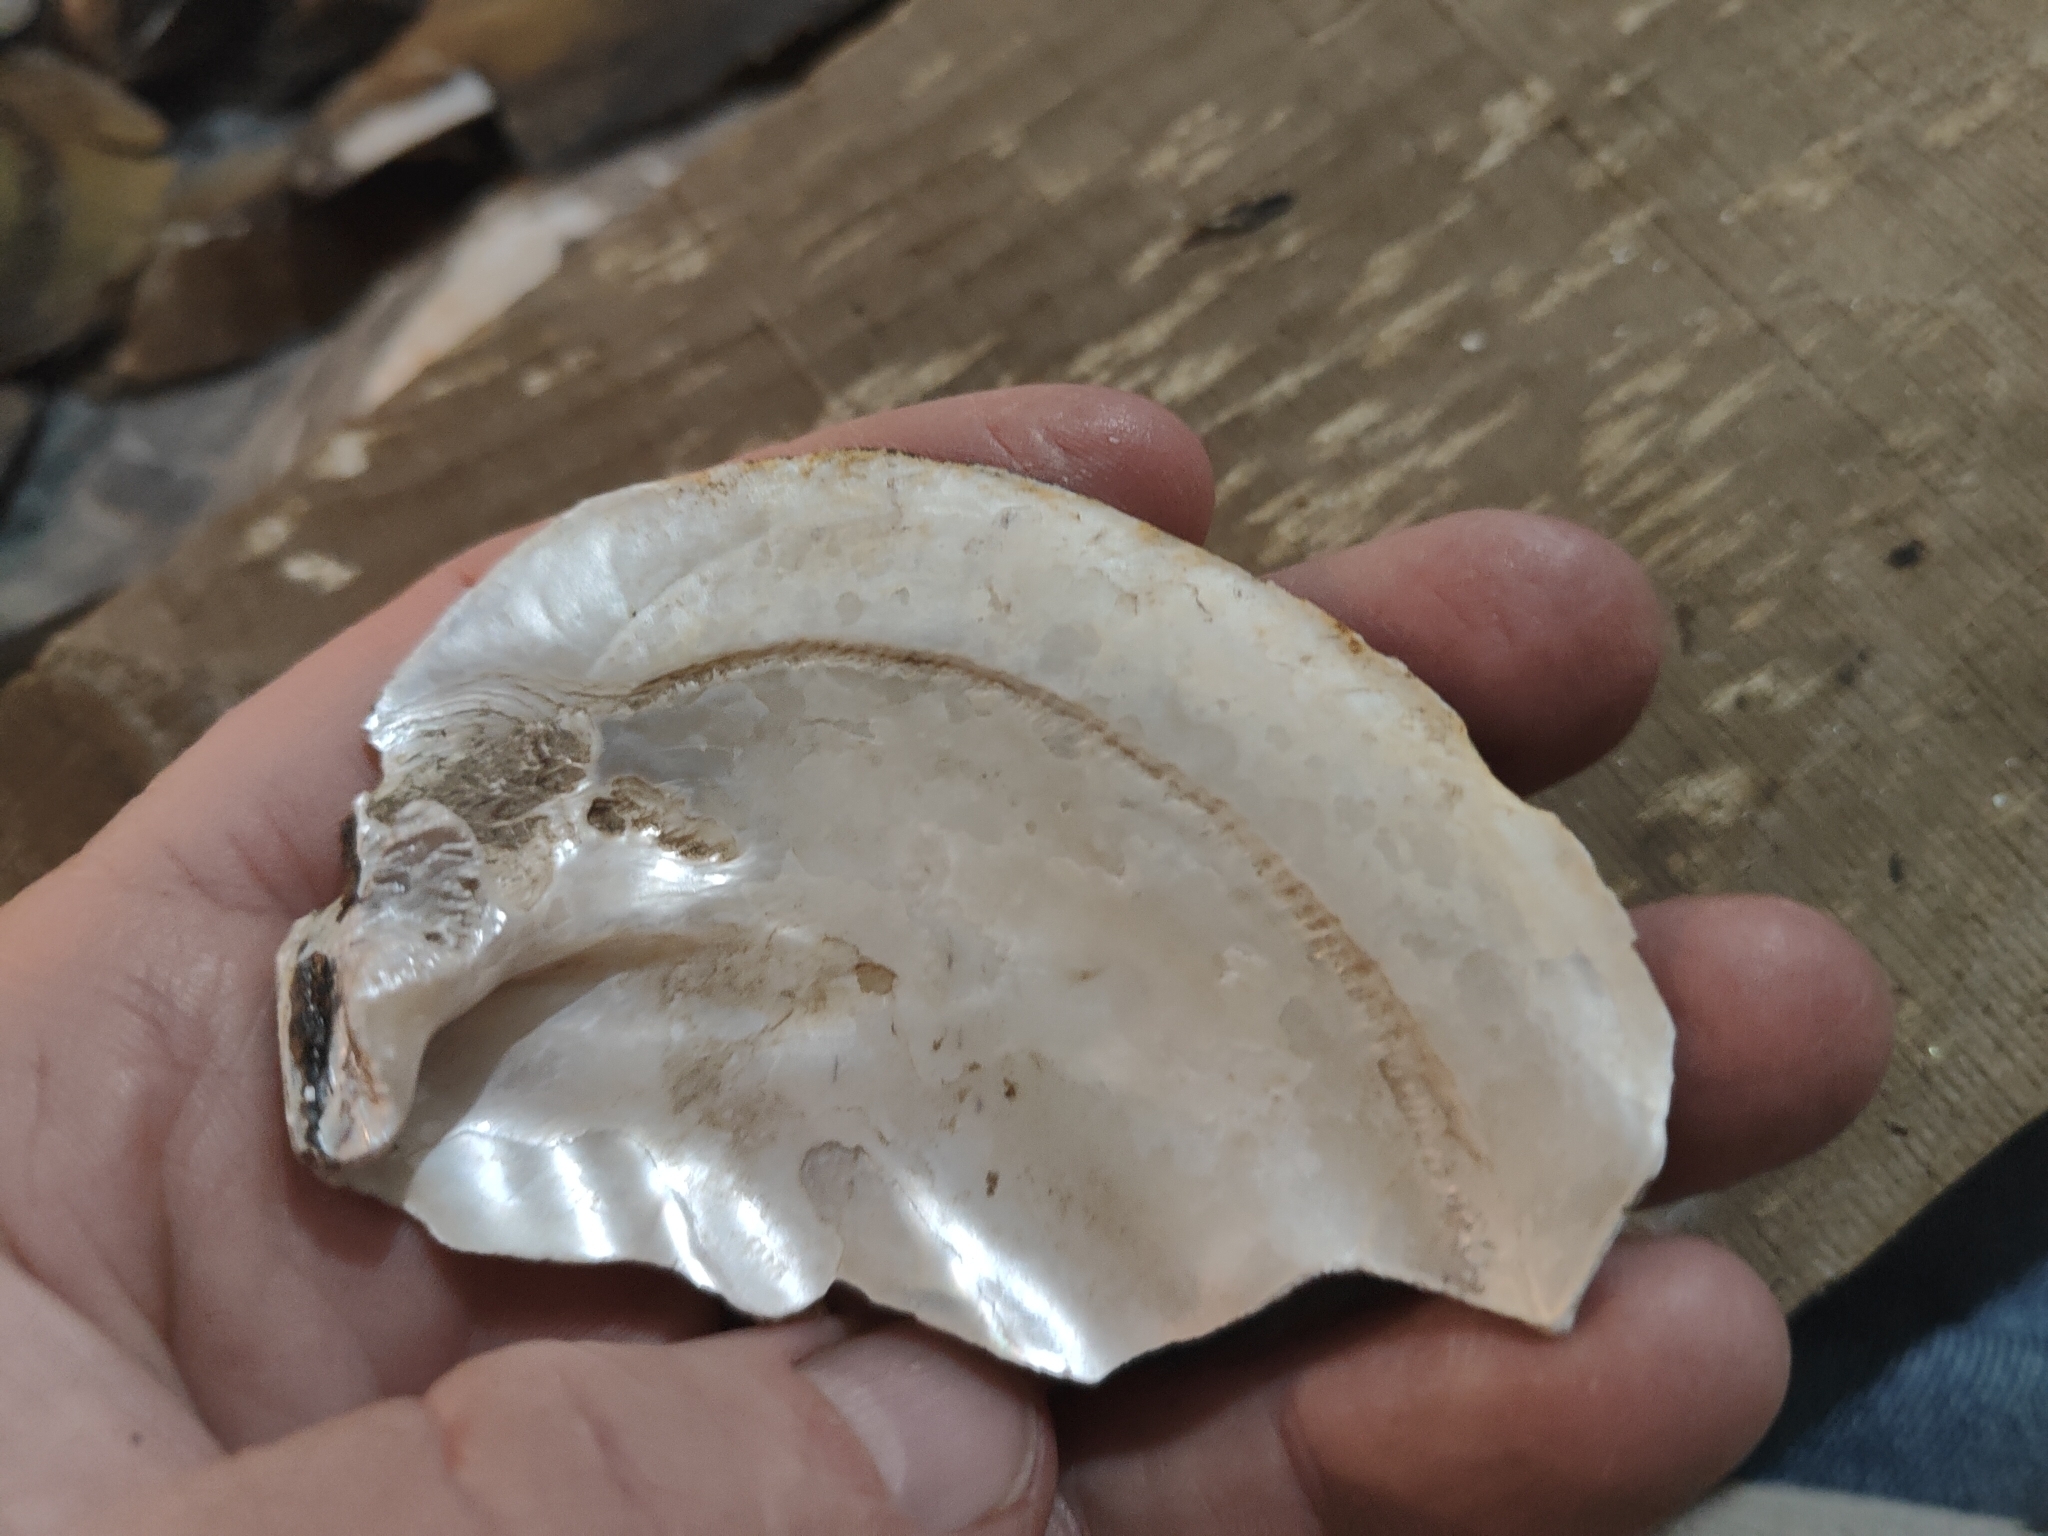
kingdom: Animalia
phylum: Mollusca
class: Bivalvia
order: Unionida
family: Unionidae
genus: Amblema
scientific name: Amblema plicata
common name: Threeridge
